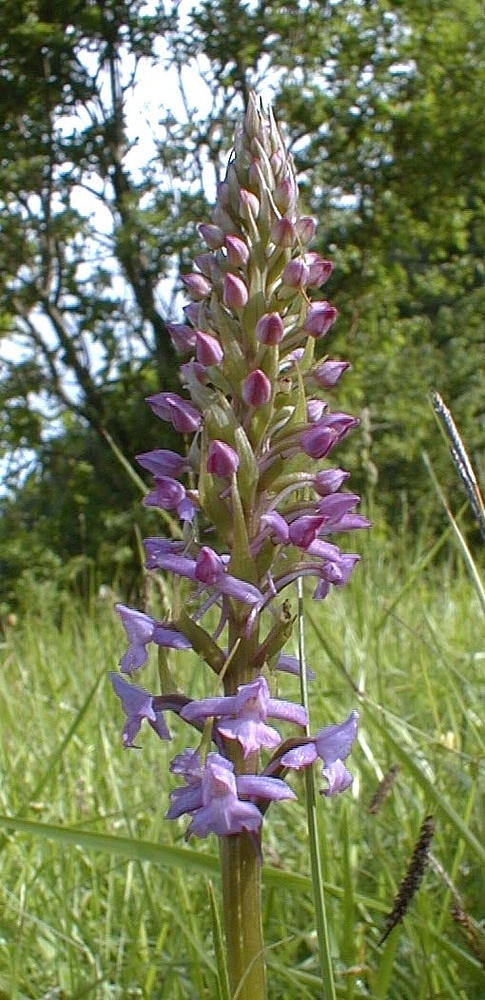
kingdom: Plantae
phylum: Tracheophyta
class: Liliopsida
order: Asparagales
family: Orchidaceae
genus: Gymnadenia
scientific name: Gymnadenia conopsea
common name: Fragrant orchid
